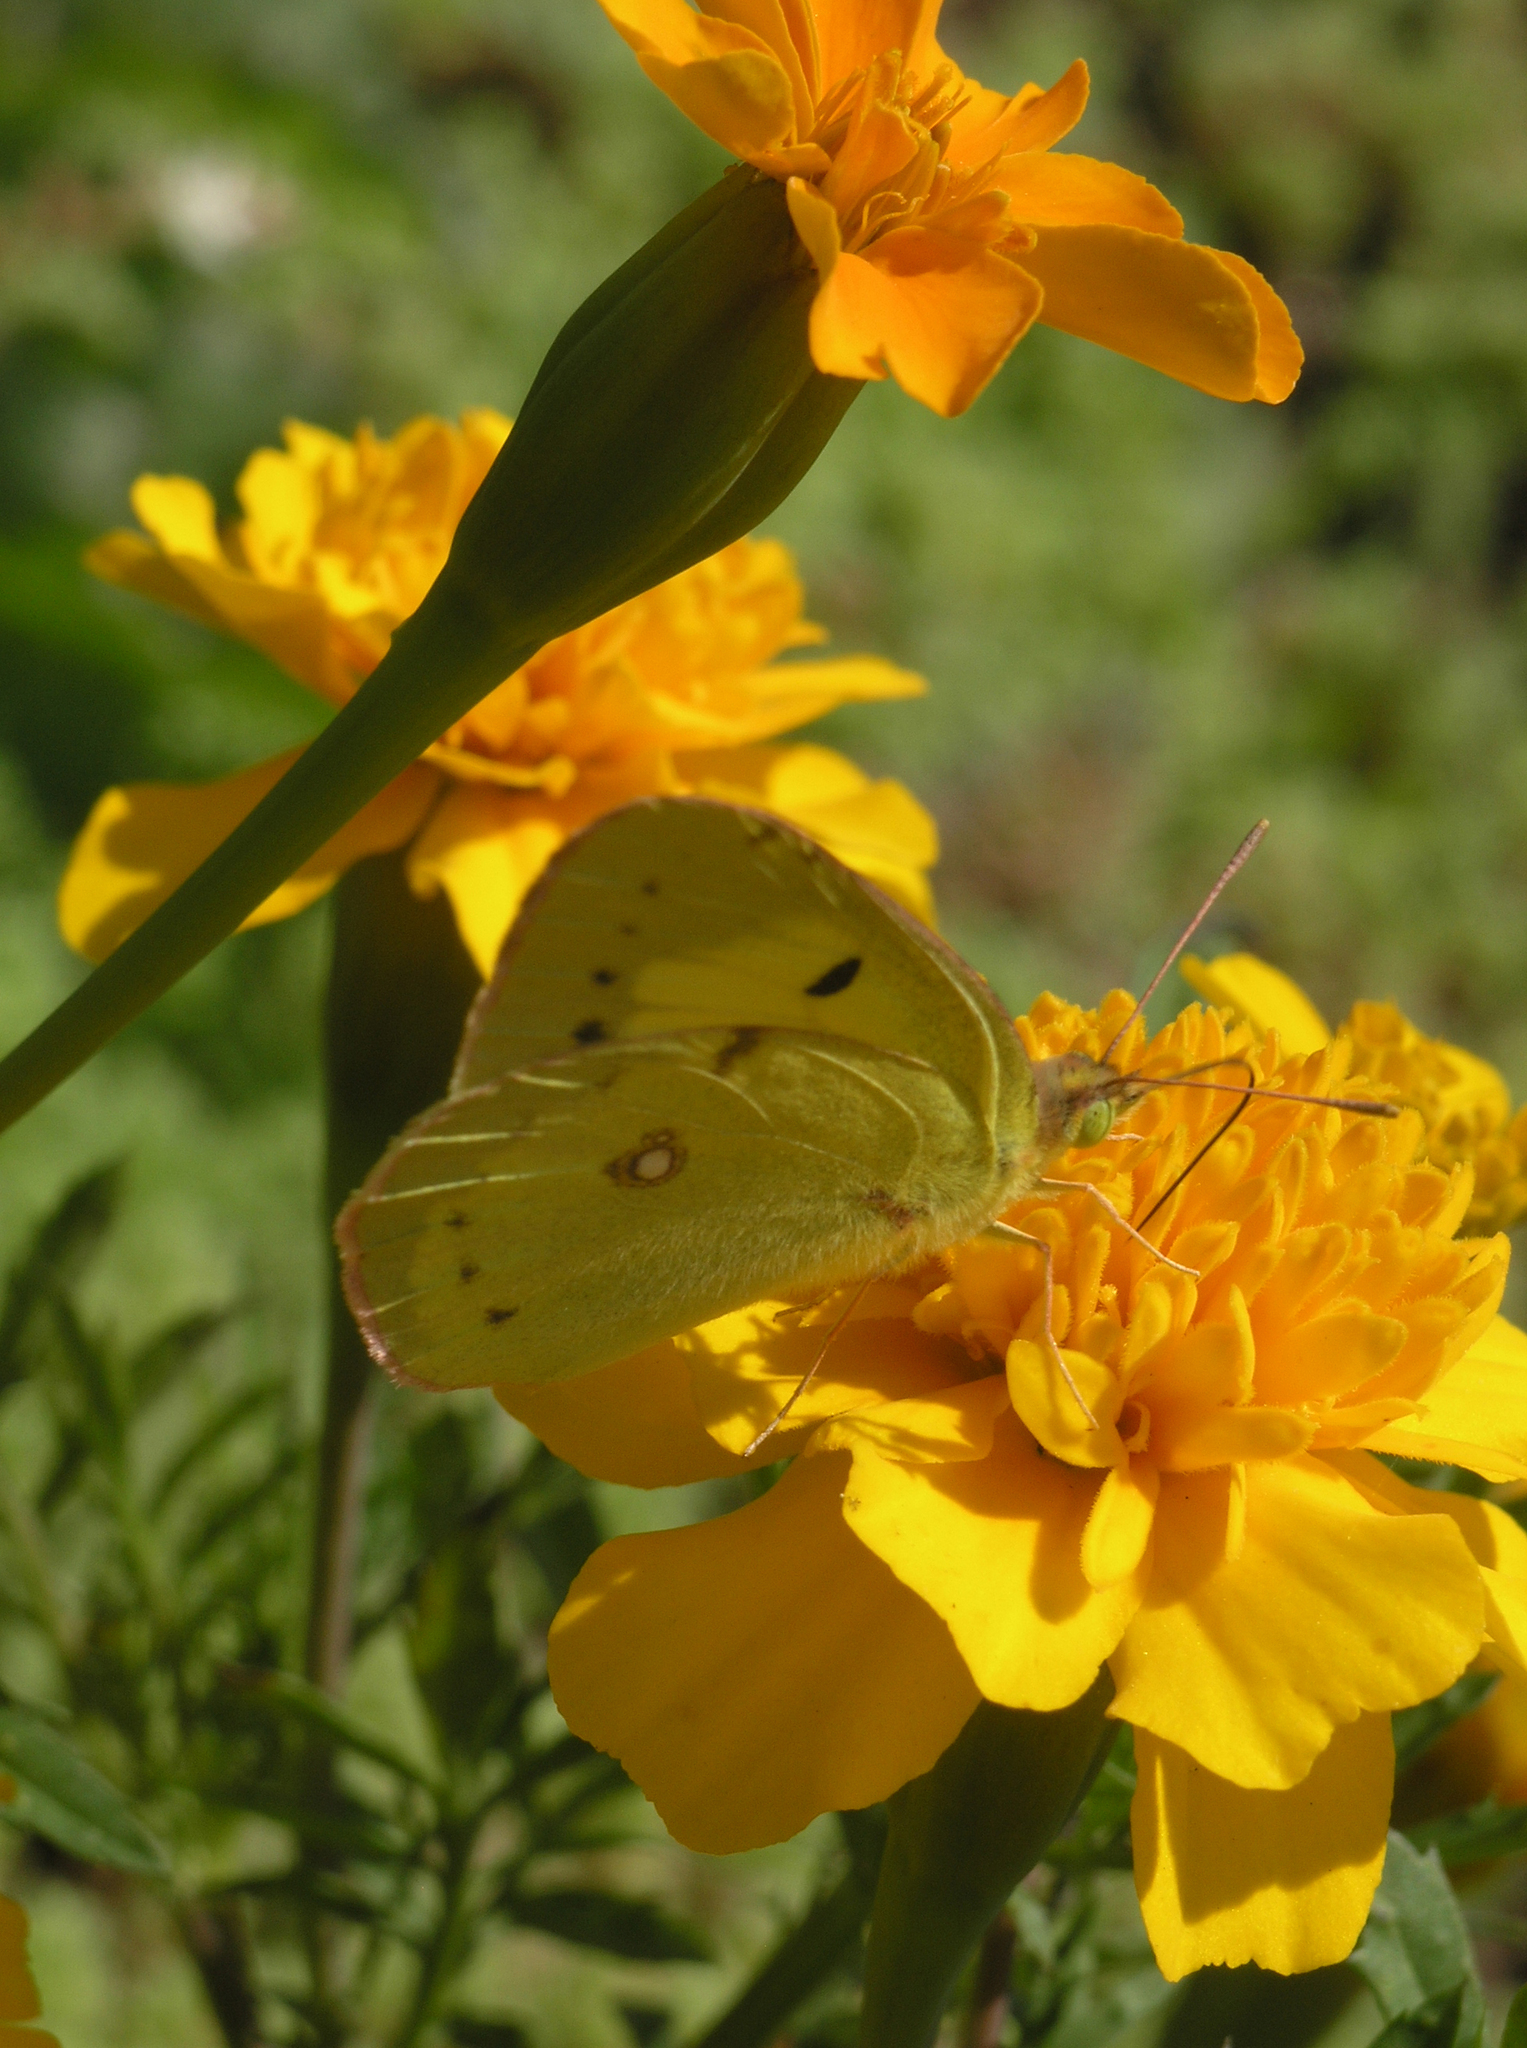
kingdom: Animalia
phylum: Arthropoda
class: Insecta
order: Lepidoptera
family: Pieridae
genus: Colias
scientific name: Colias erate
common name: Eastern pale clouded yellow
